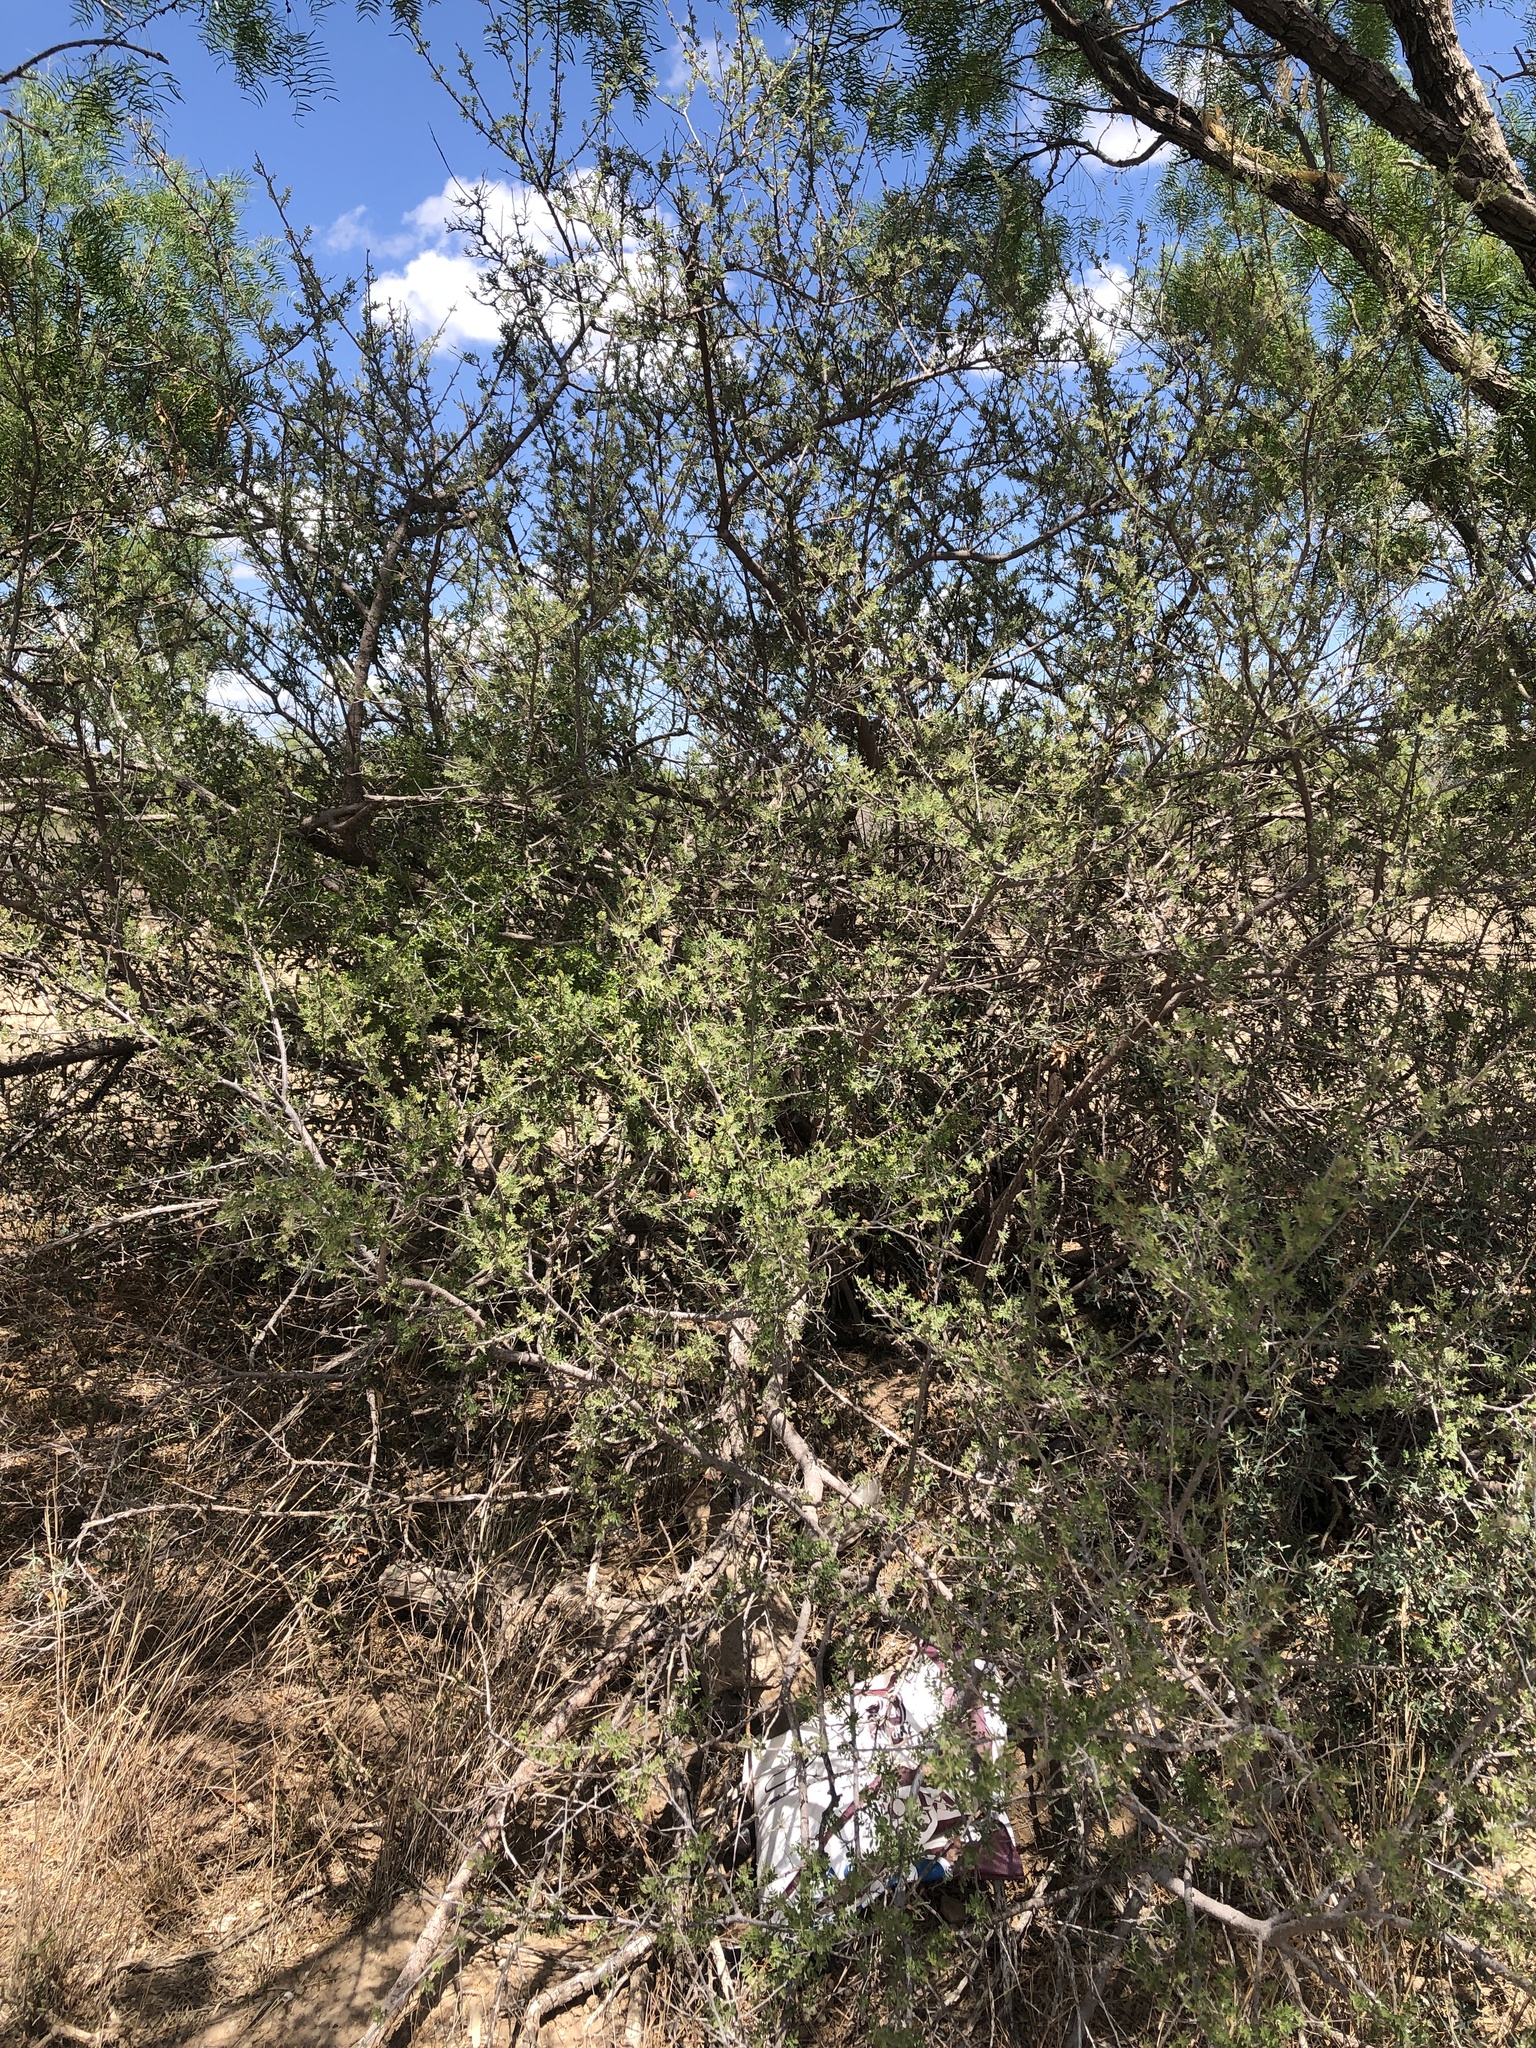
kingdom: Plantae
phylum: Tracheophyta
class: Magnoliopsida
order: Sapindales
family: Anacardiaceae
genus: Rhus
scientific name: Rhus microphylla
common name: Desert sumac
